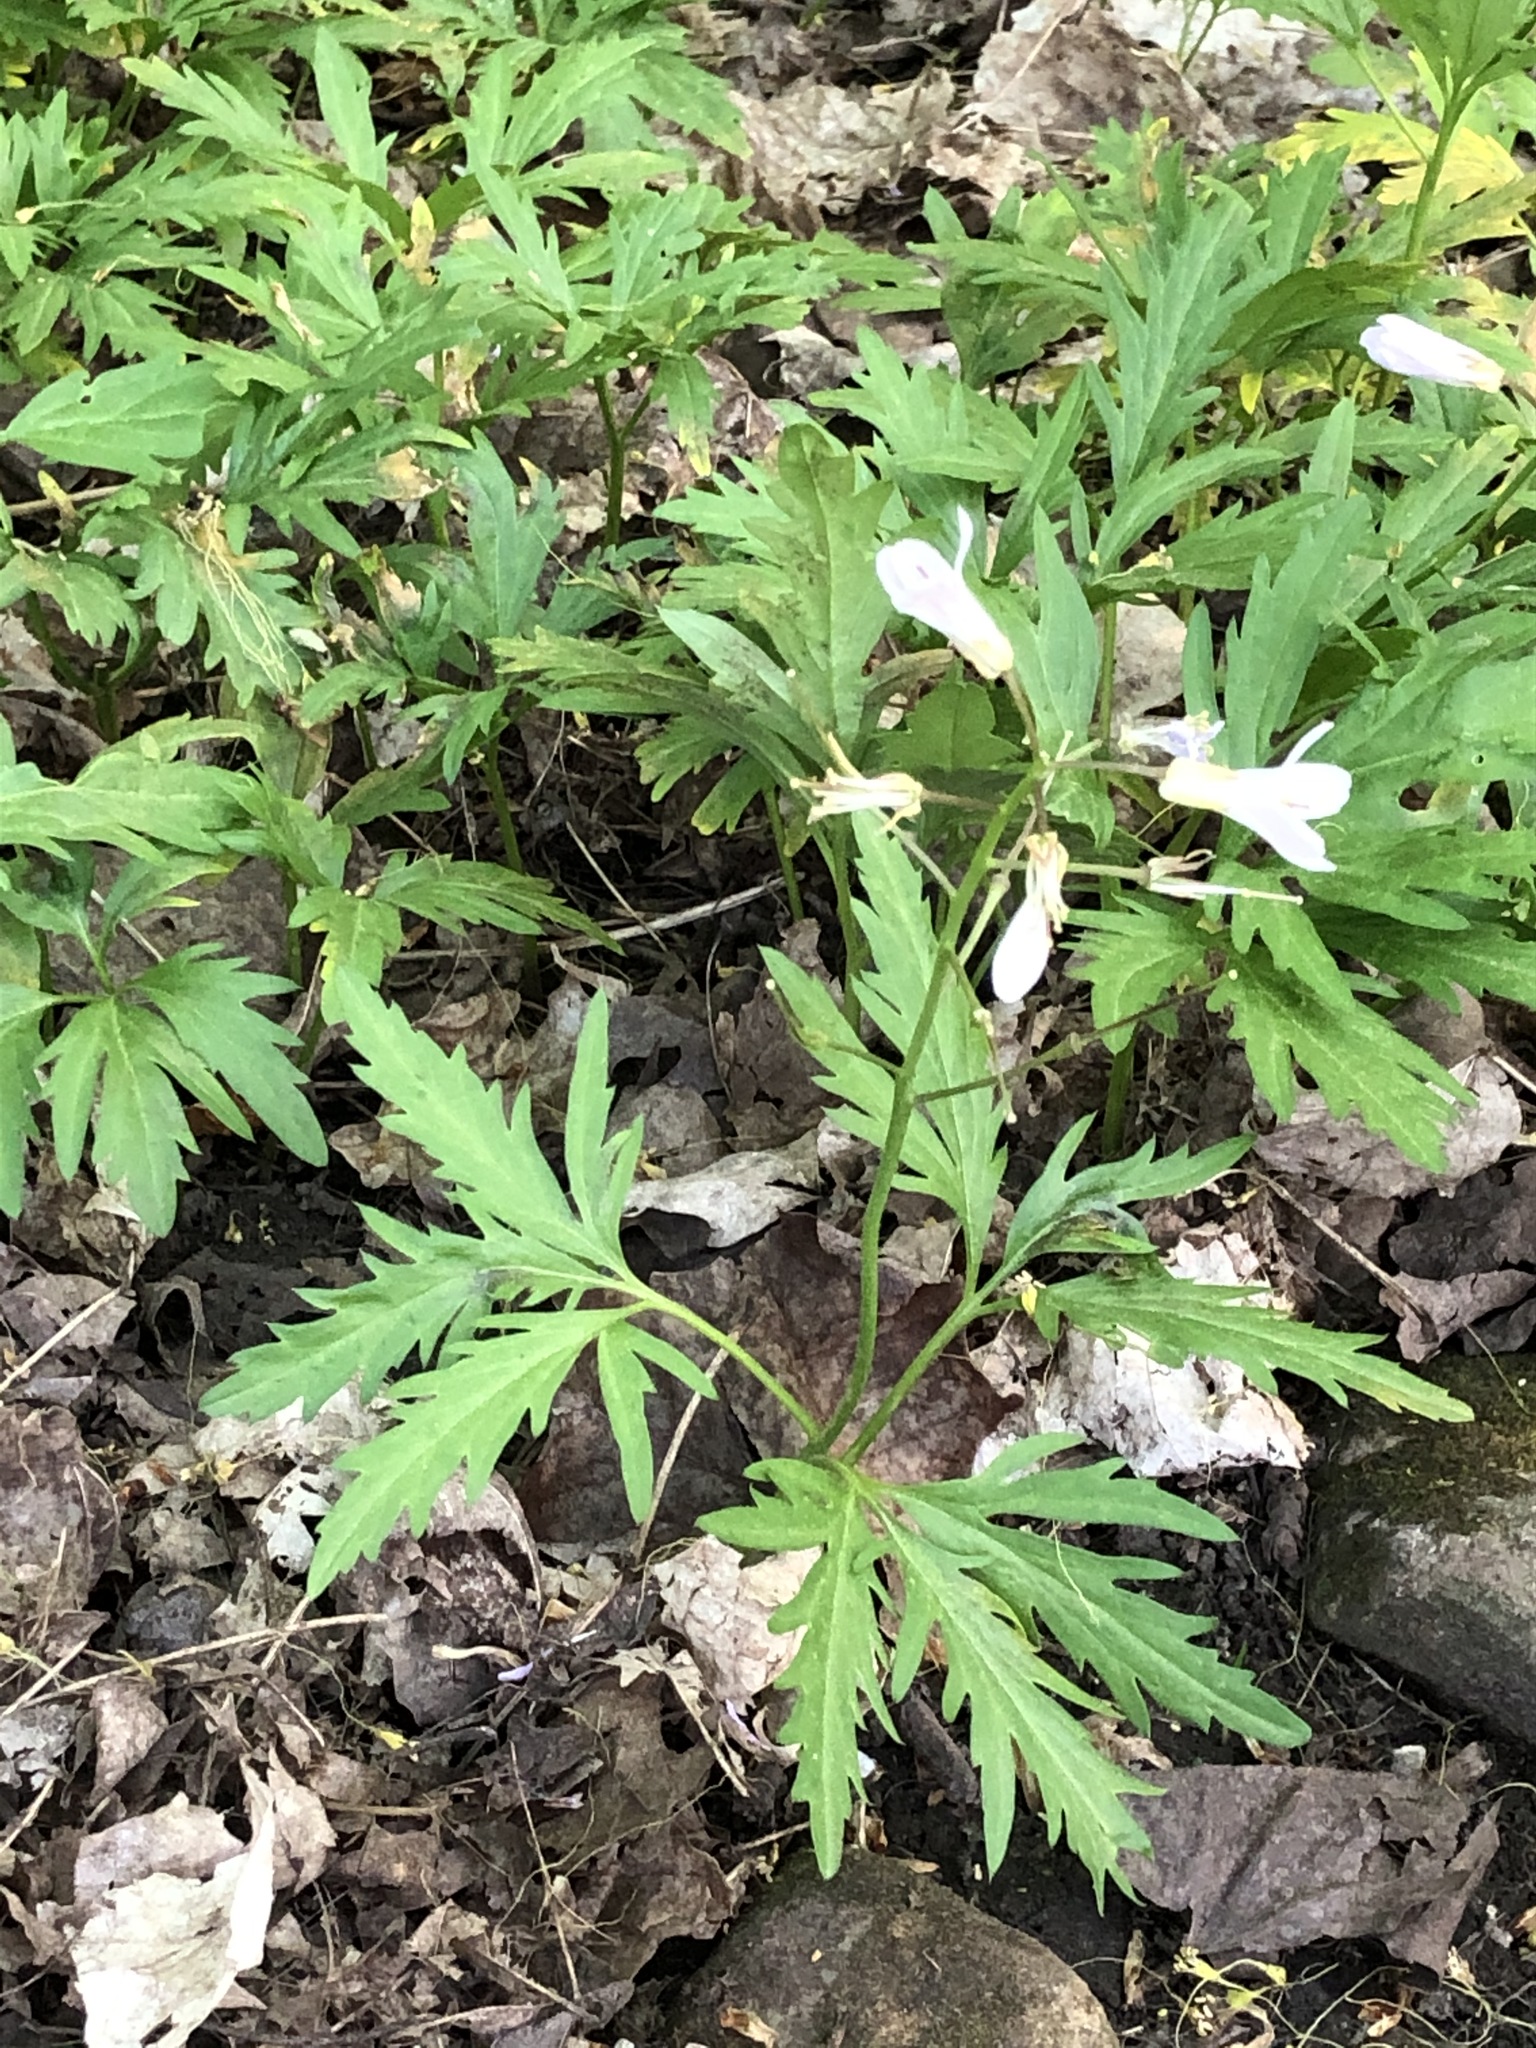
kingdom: Plantae
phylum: Tracheophyta
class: Magnoliopsida
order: Brassicales
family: Brassicaceae
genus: Cardamine
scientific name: Cardamine concatenata
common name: Cut-leaf toothcup
